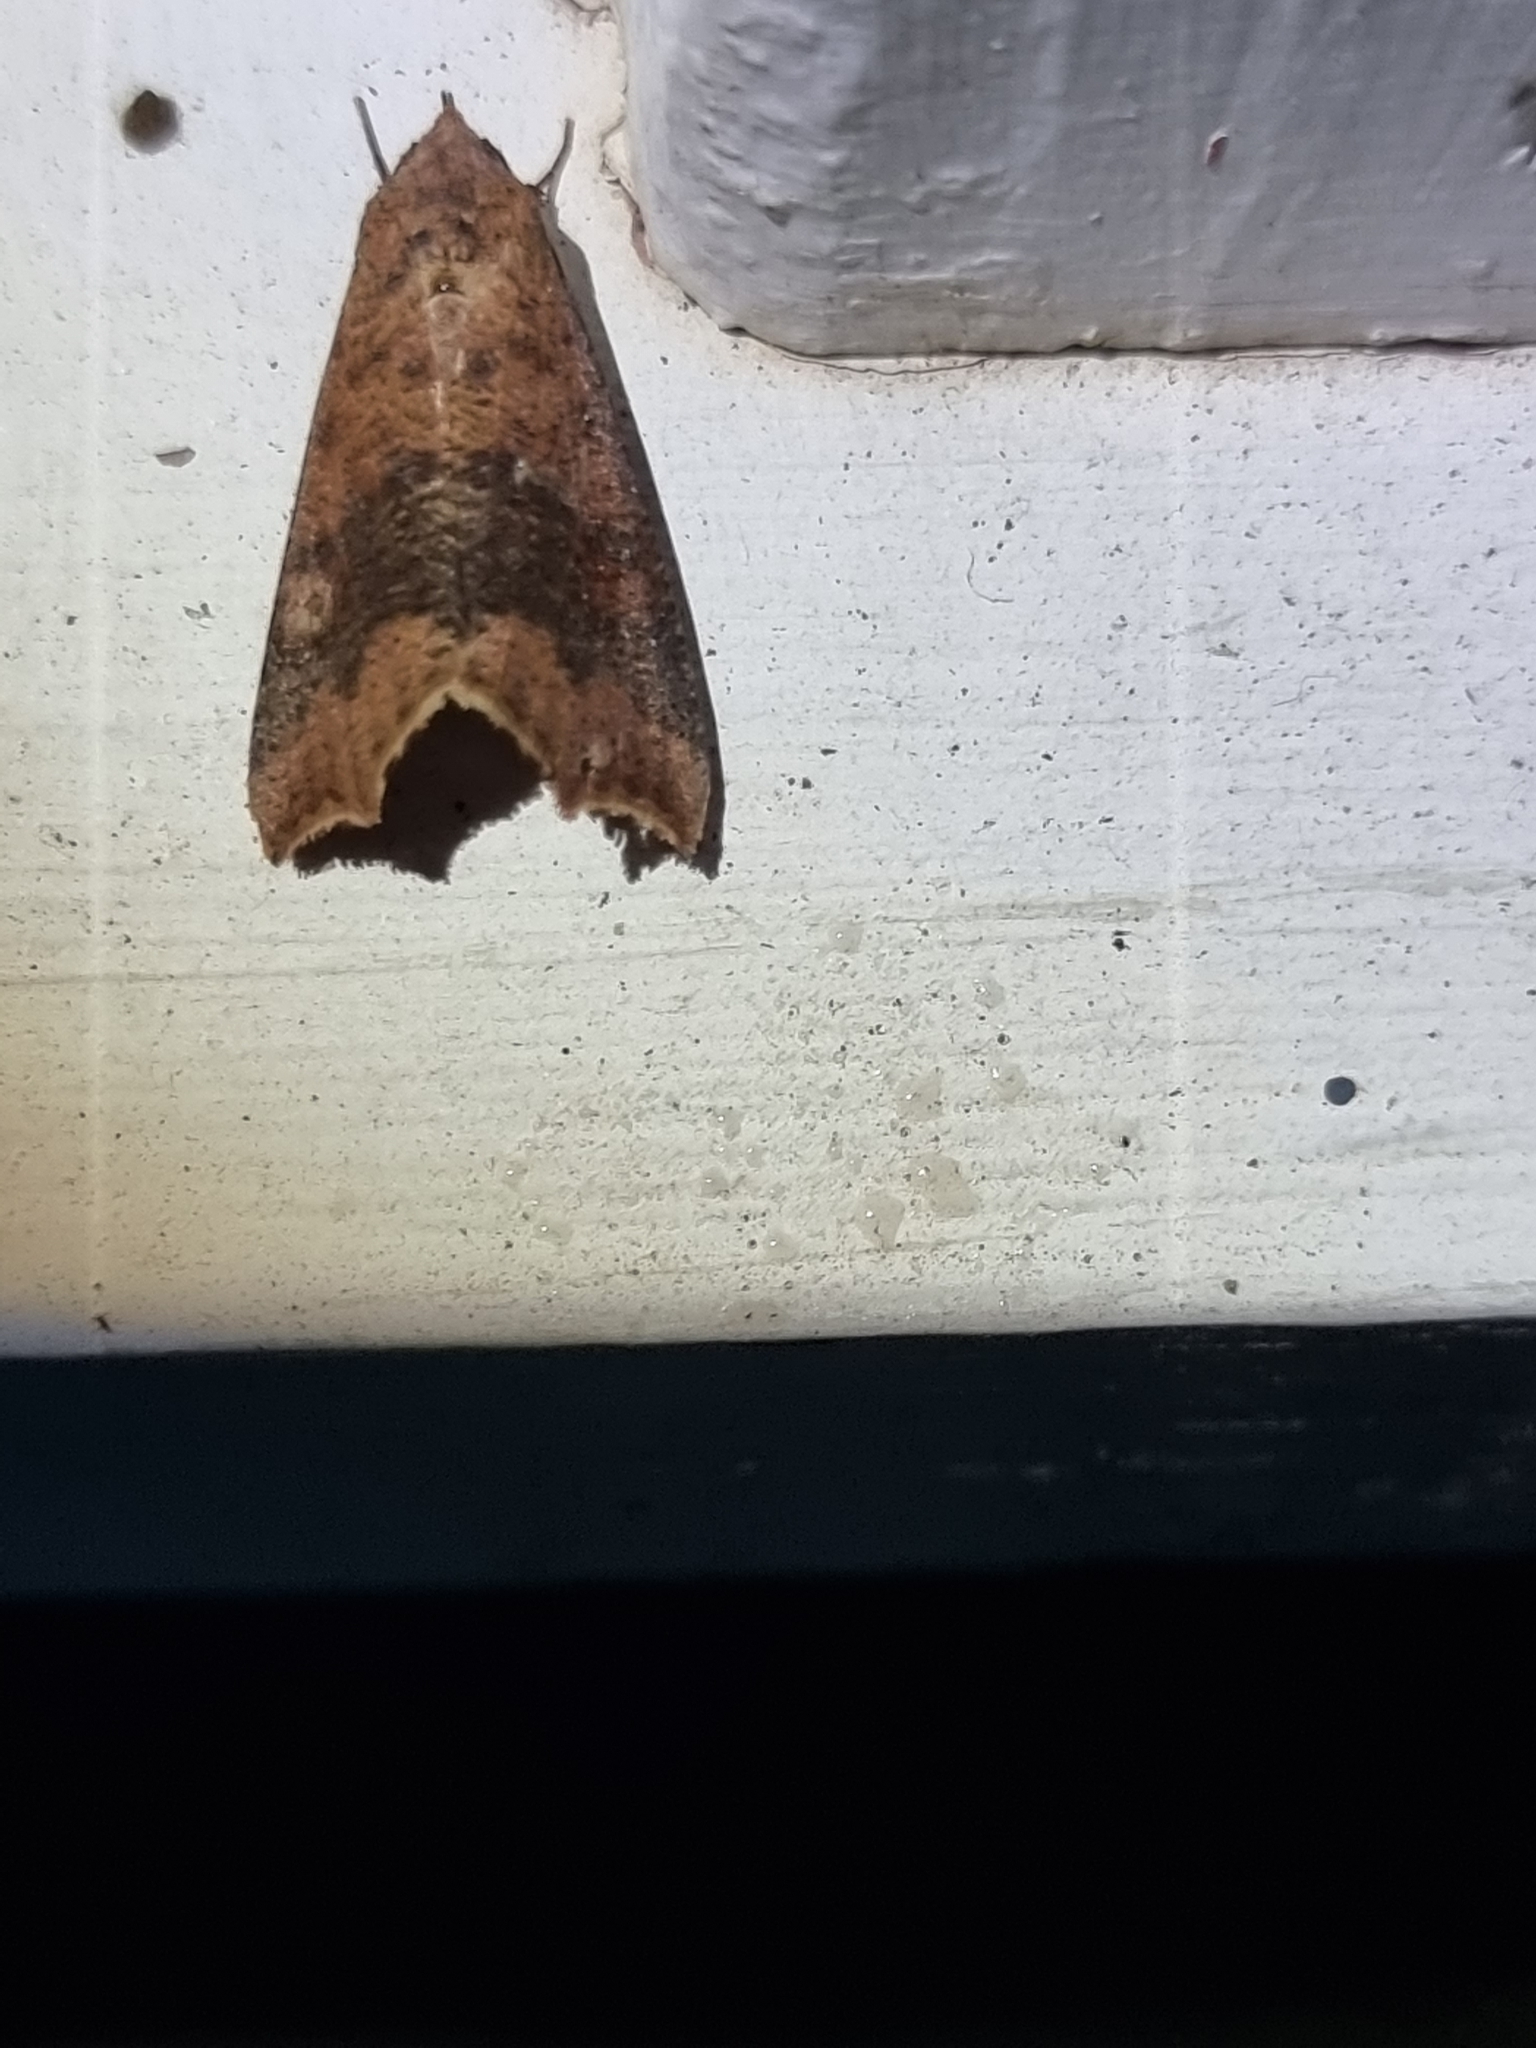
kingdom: Animalia
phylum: Arthropoda
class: Insecta
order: Lepidoptera
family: Erebidae
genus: Gonitis
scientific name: Gonitis involuta
